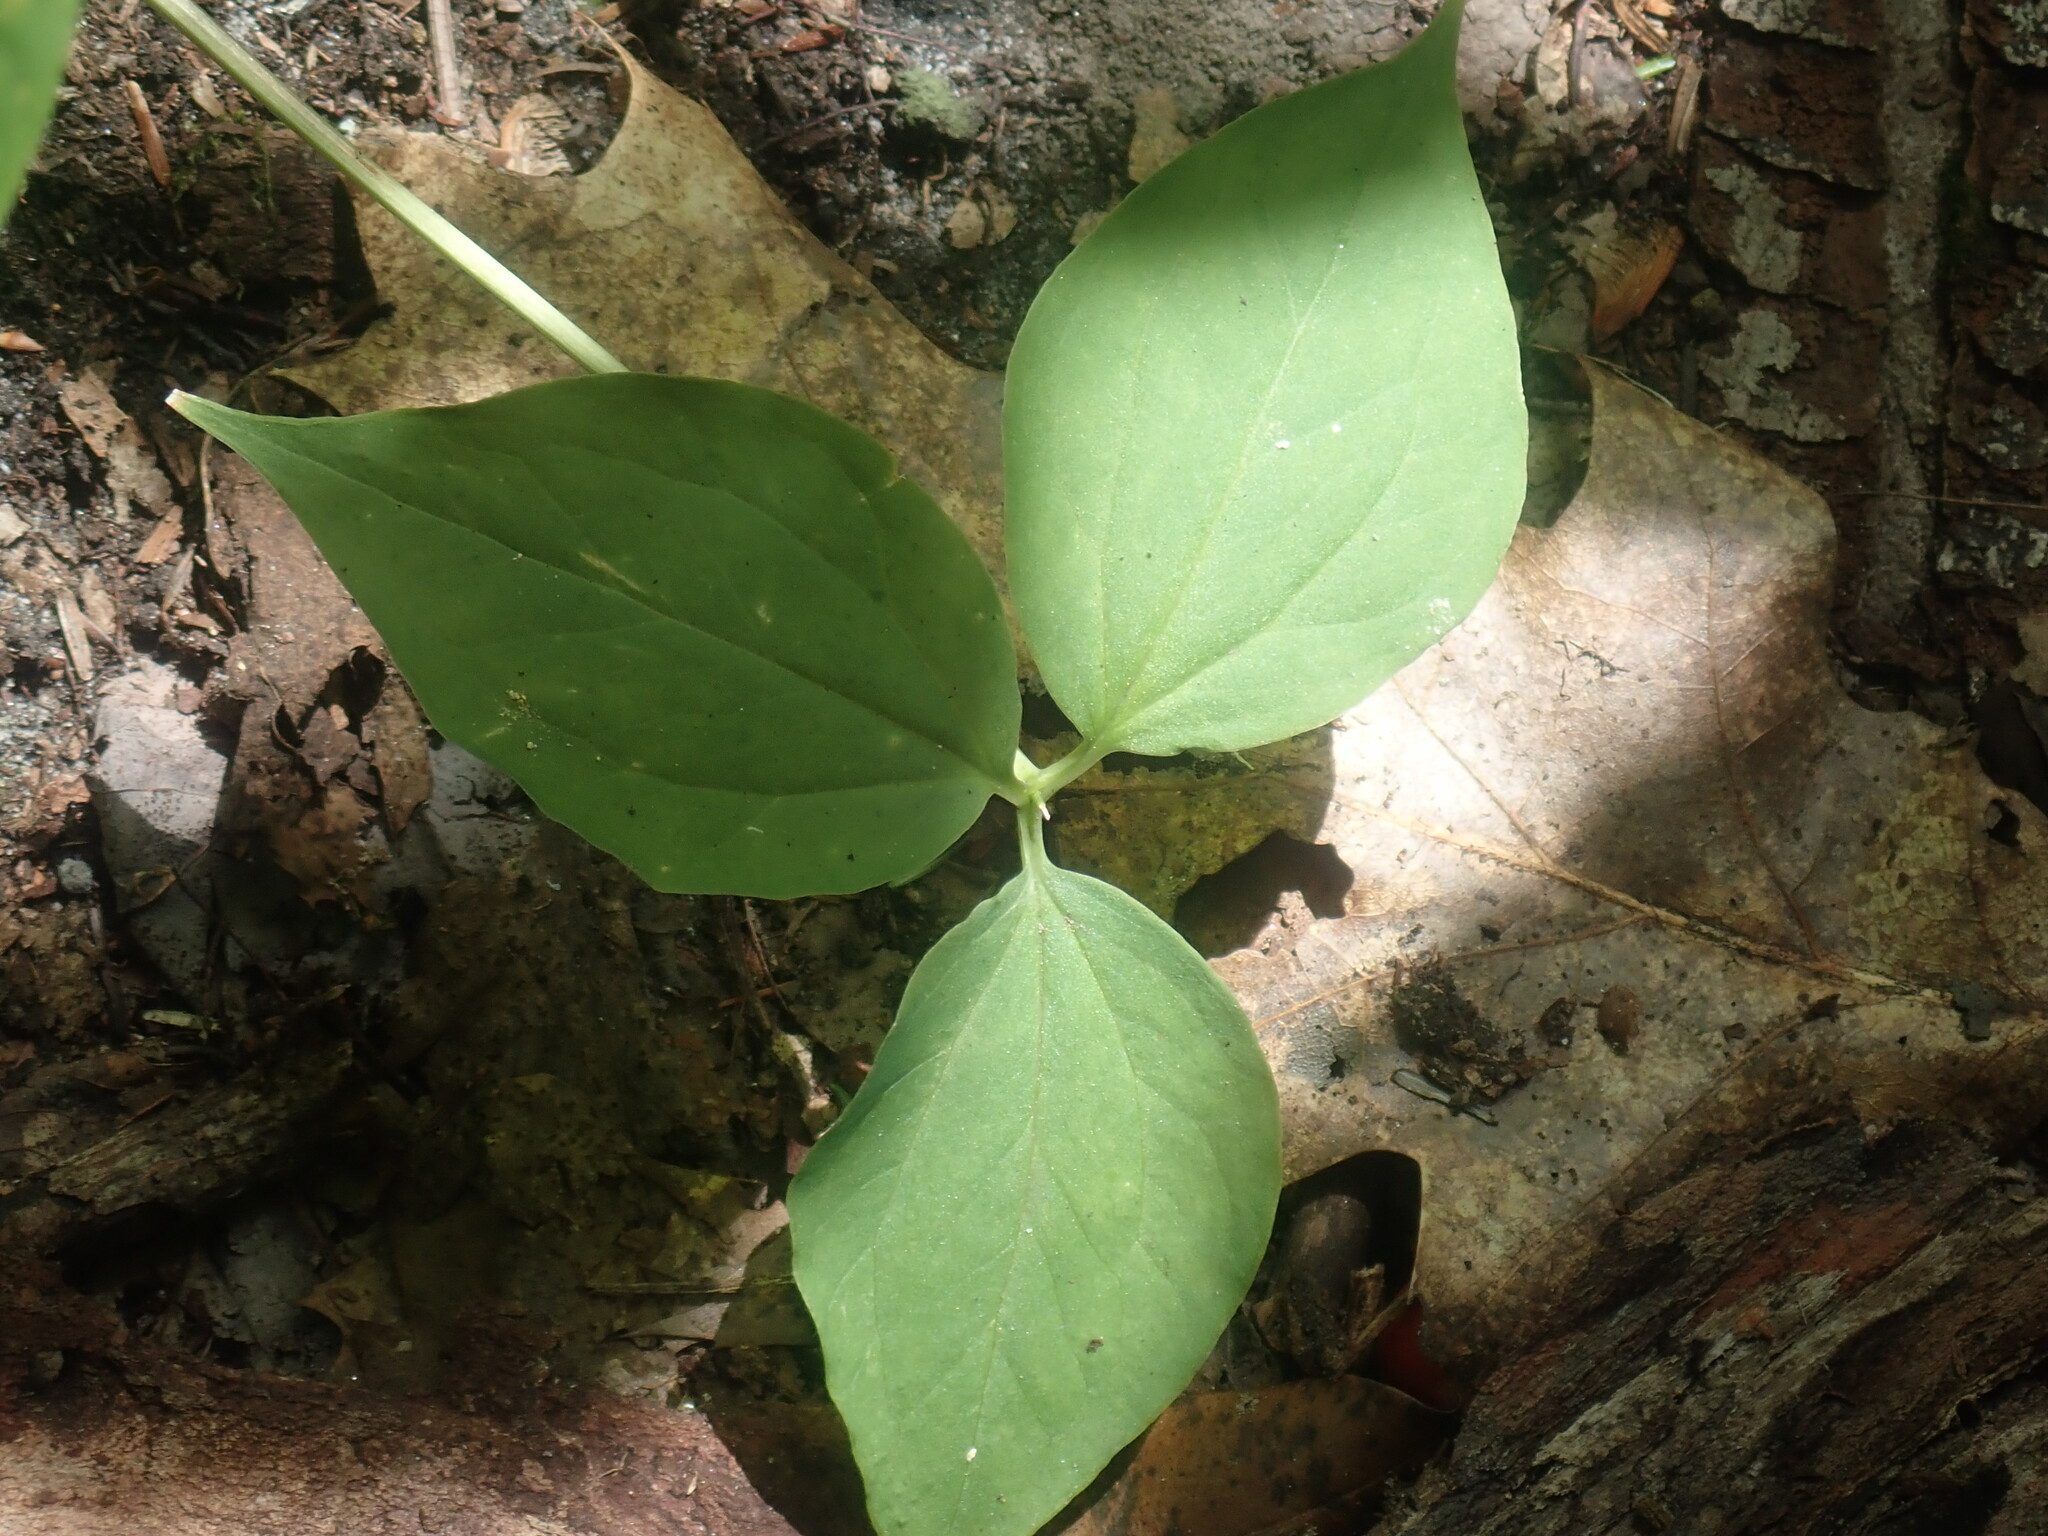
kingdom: Plantae
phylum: Tracheophyta
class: Liliopsida
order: Liliales
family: Melanthiaceae
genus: Trillium
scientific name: Trillium undulatum
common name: Paint trillium
